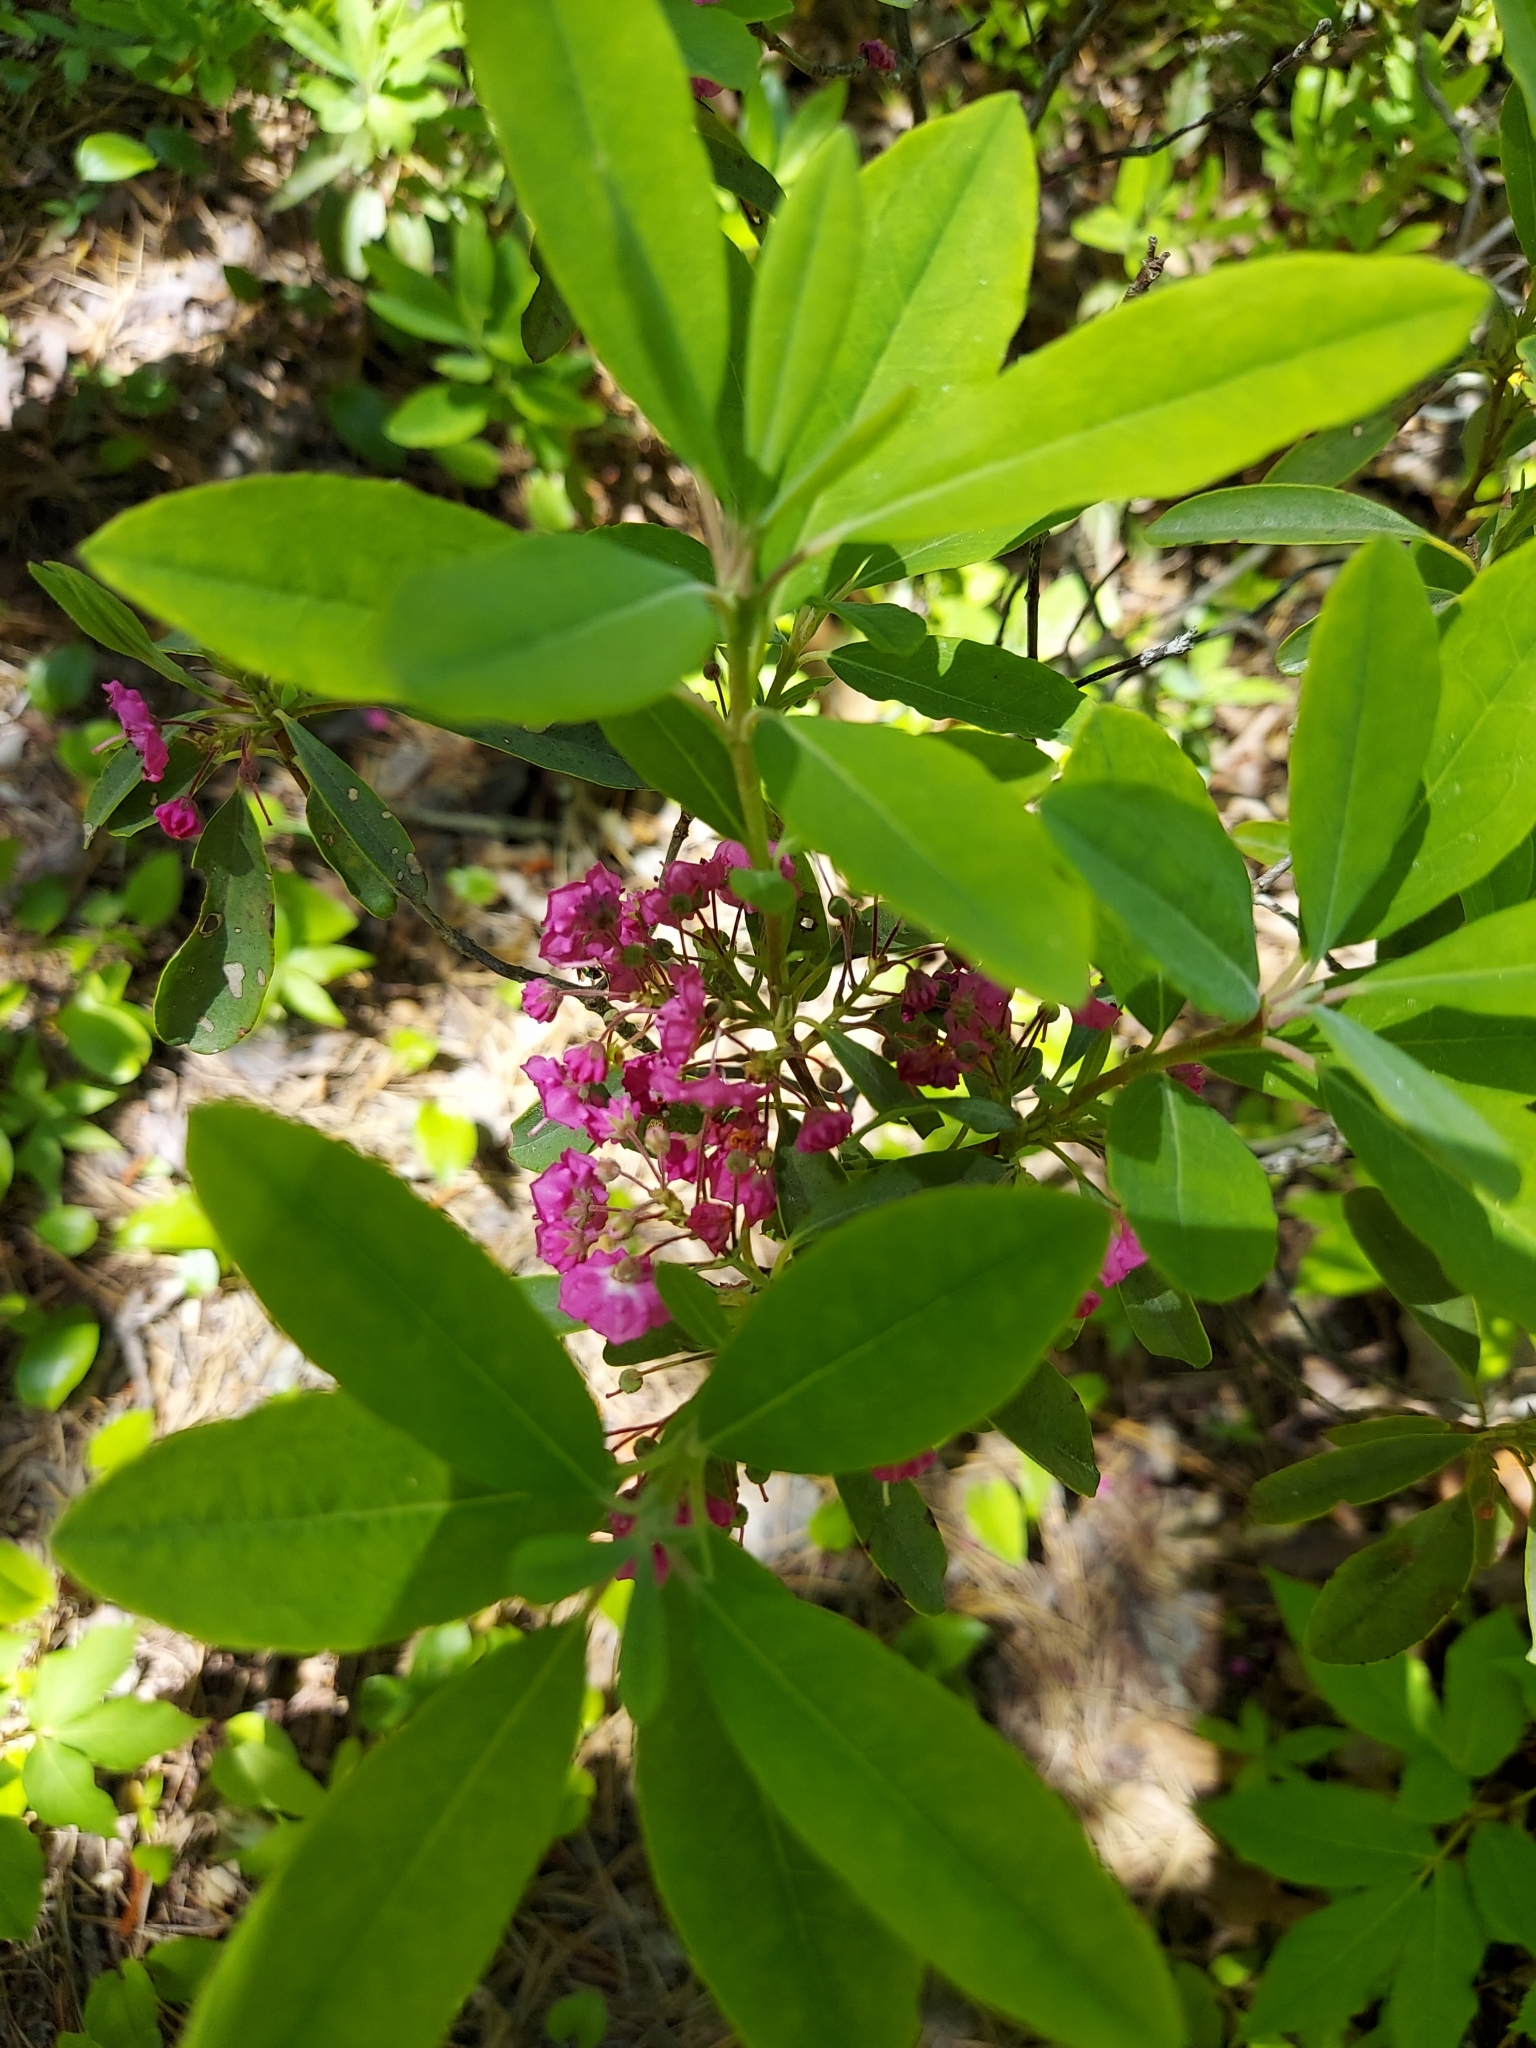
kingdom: Plantae
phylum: Tracheophyta
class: Magnoliopsida
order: Ericales
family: Ericaceae
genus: Kalmia
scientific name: Kalmia angustifolia
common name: Sheep-laurel
